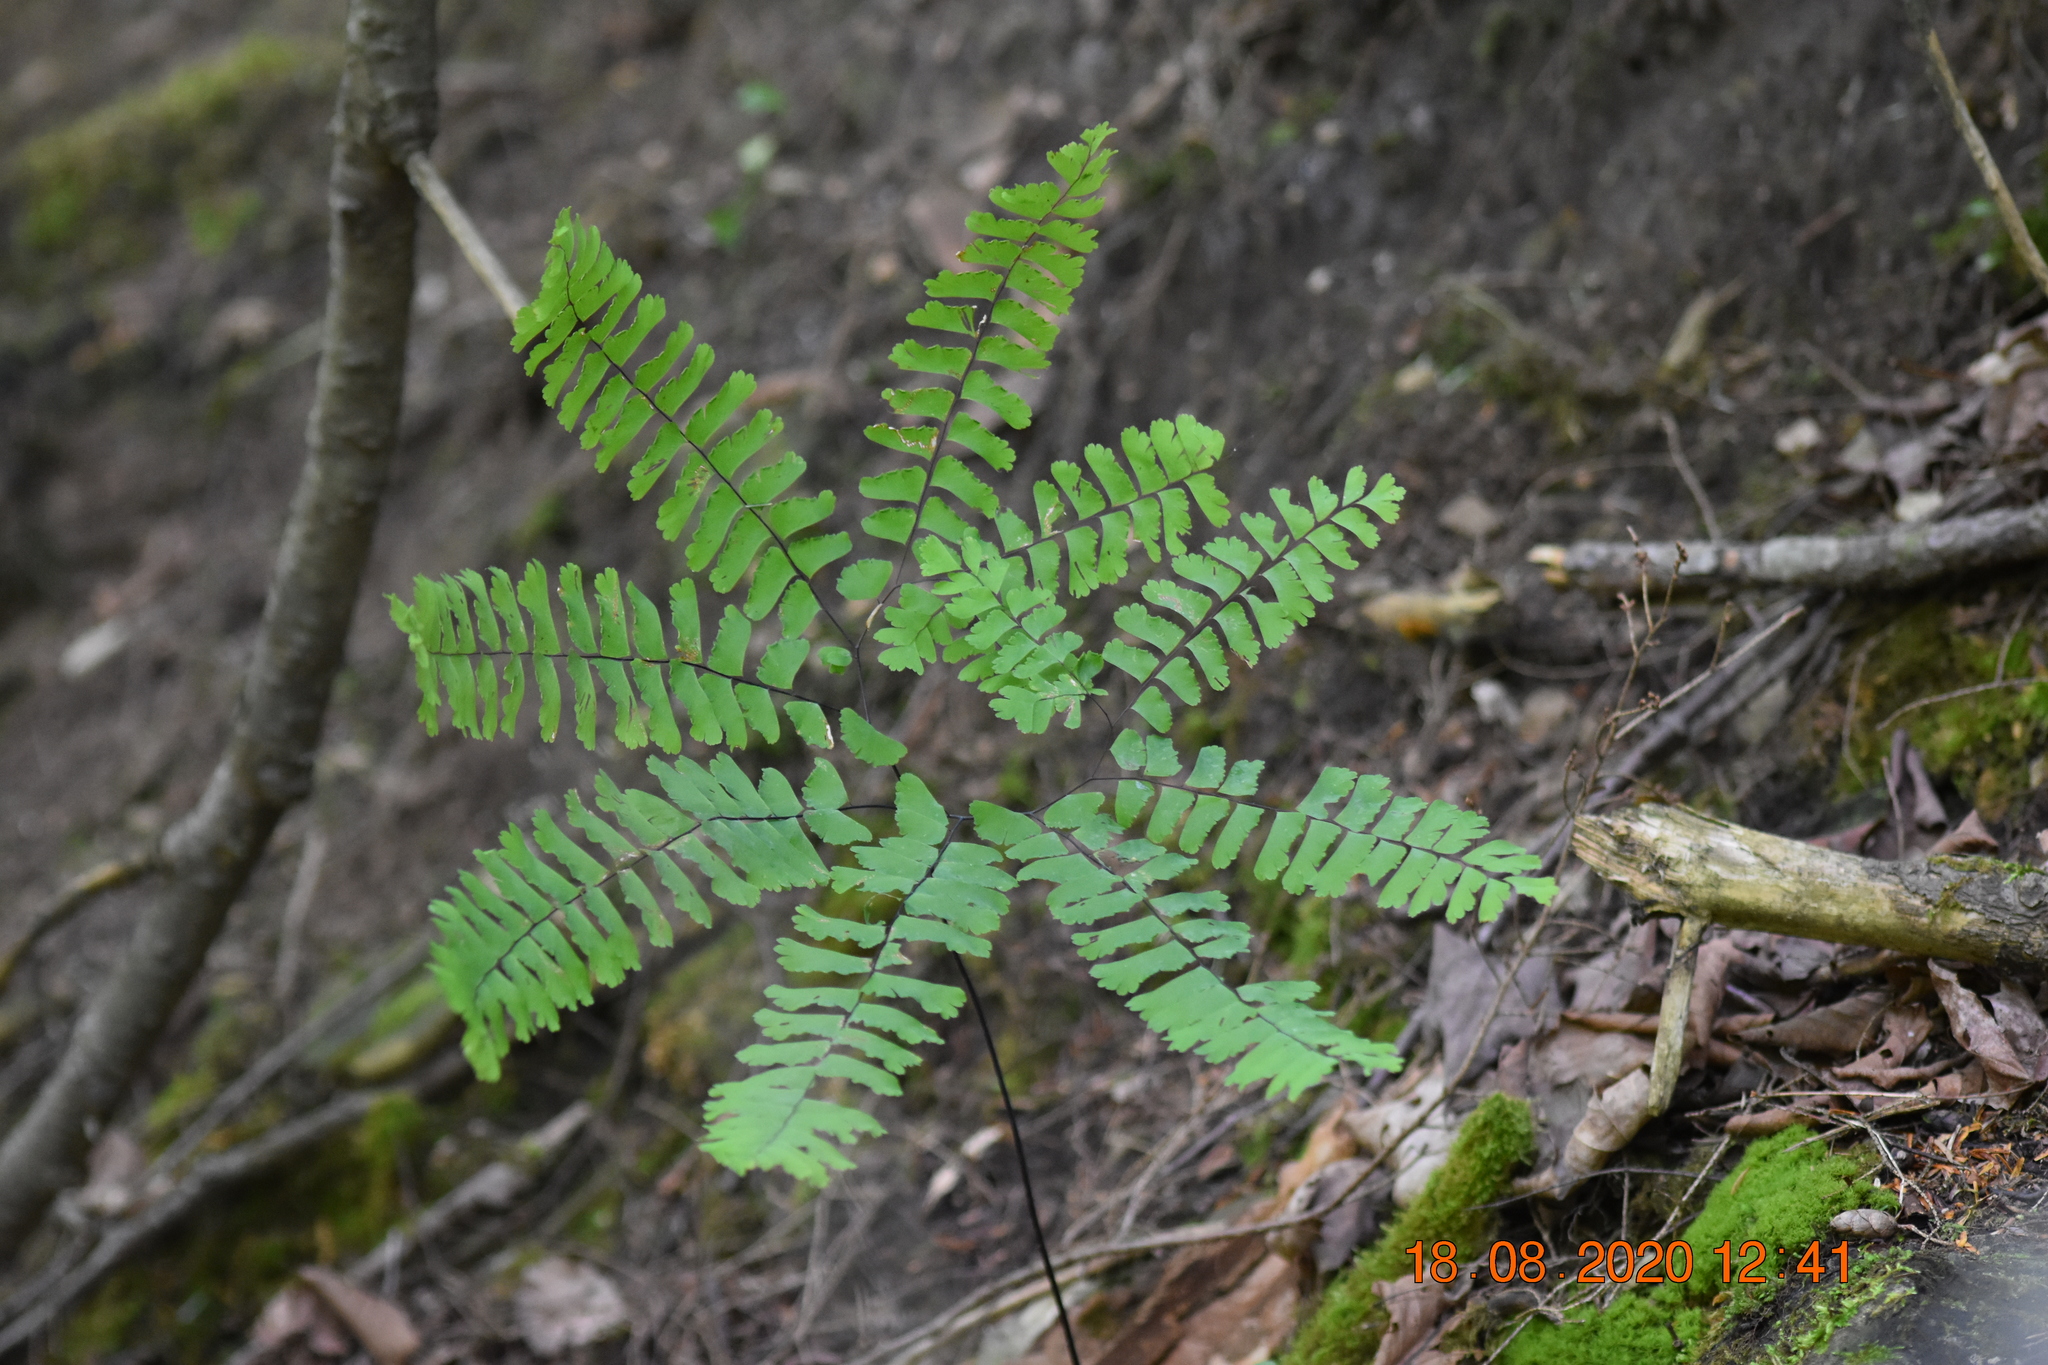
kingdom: Plantae
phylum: Tracheophyta
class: Polypodiopsida
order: Polypodiales
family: Pteridaceae
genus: Adiantum
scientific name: Adiantum pedatum
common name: Five-finger fern
